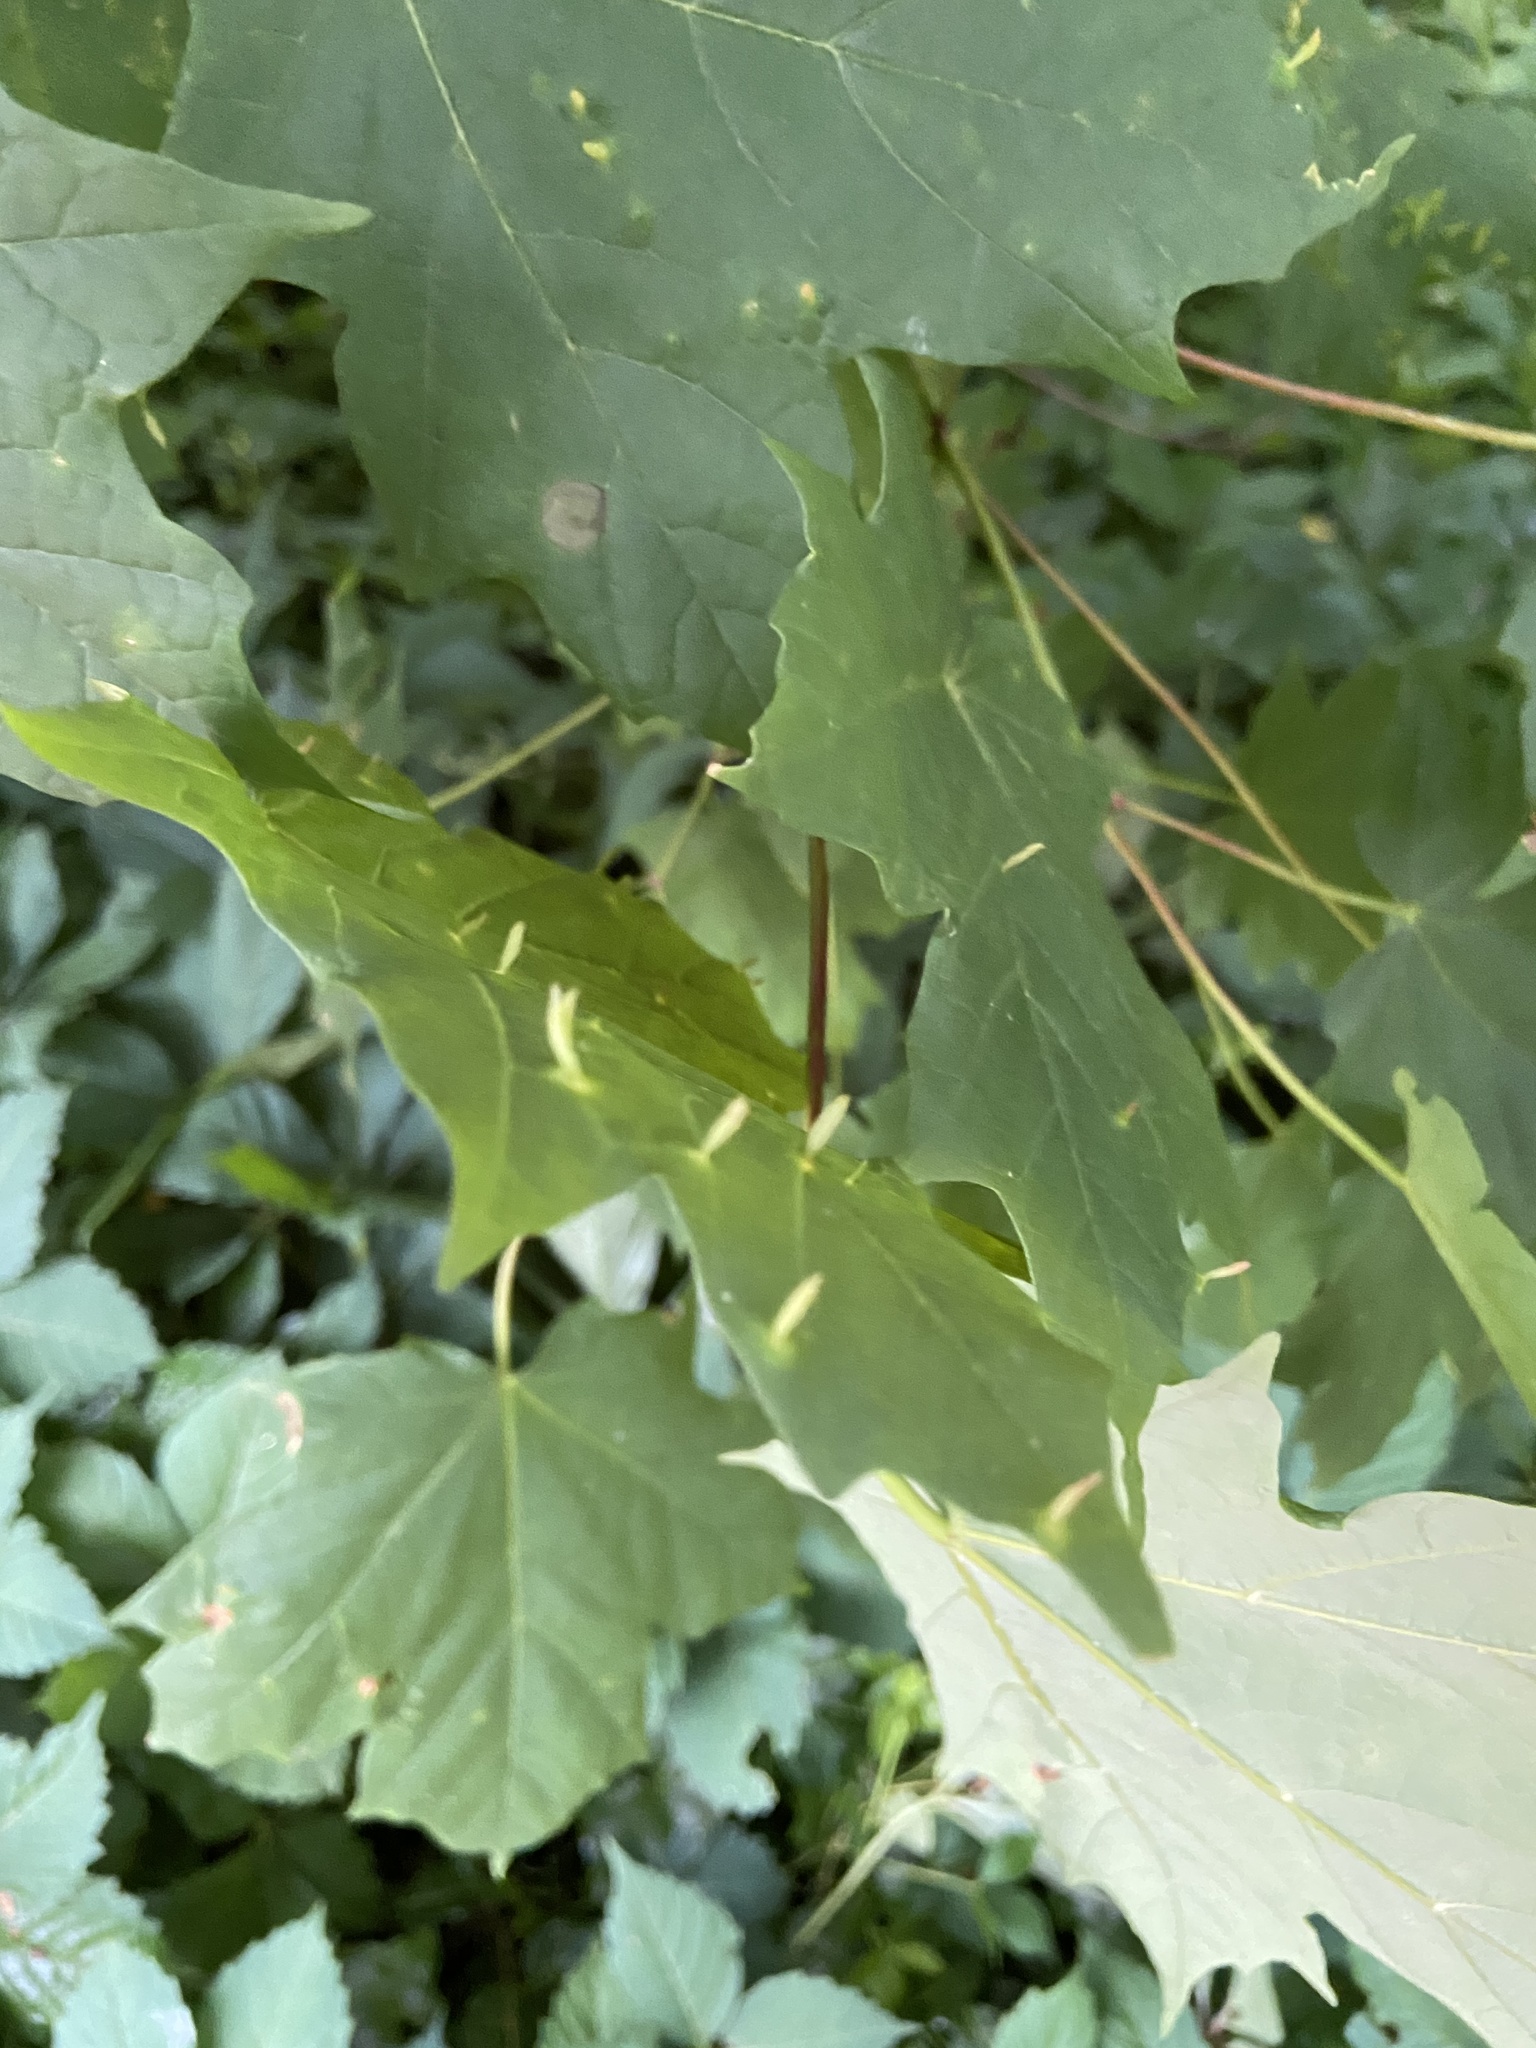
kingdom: Animalia
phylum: Arthropoda
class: Arachnida
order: Trombidiformes
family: Eriophyidae
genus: Vasates
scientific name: Vasates aceriscrumena
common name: Maple spindle gall mite
